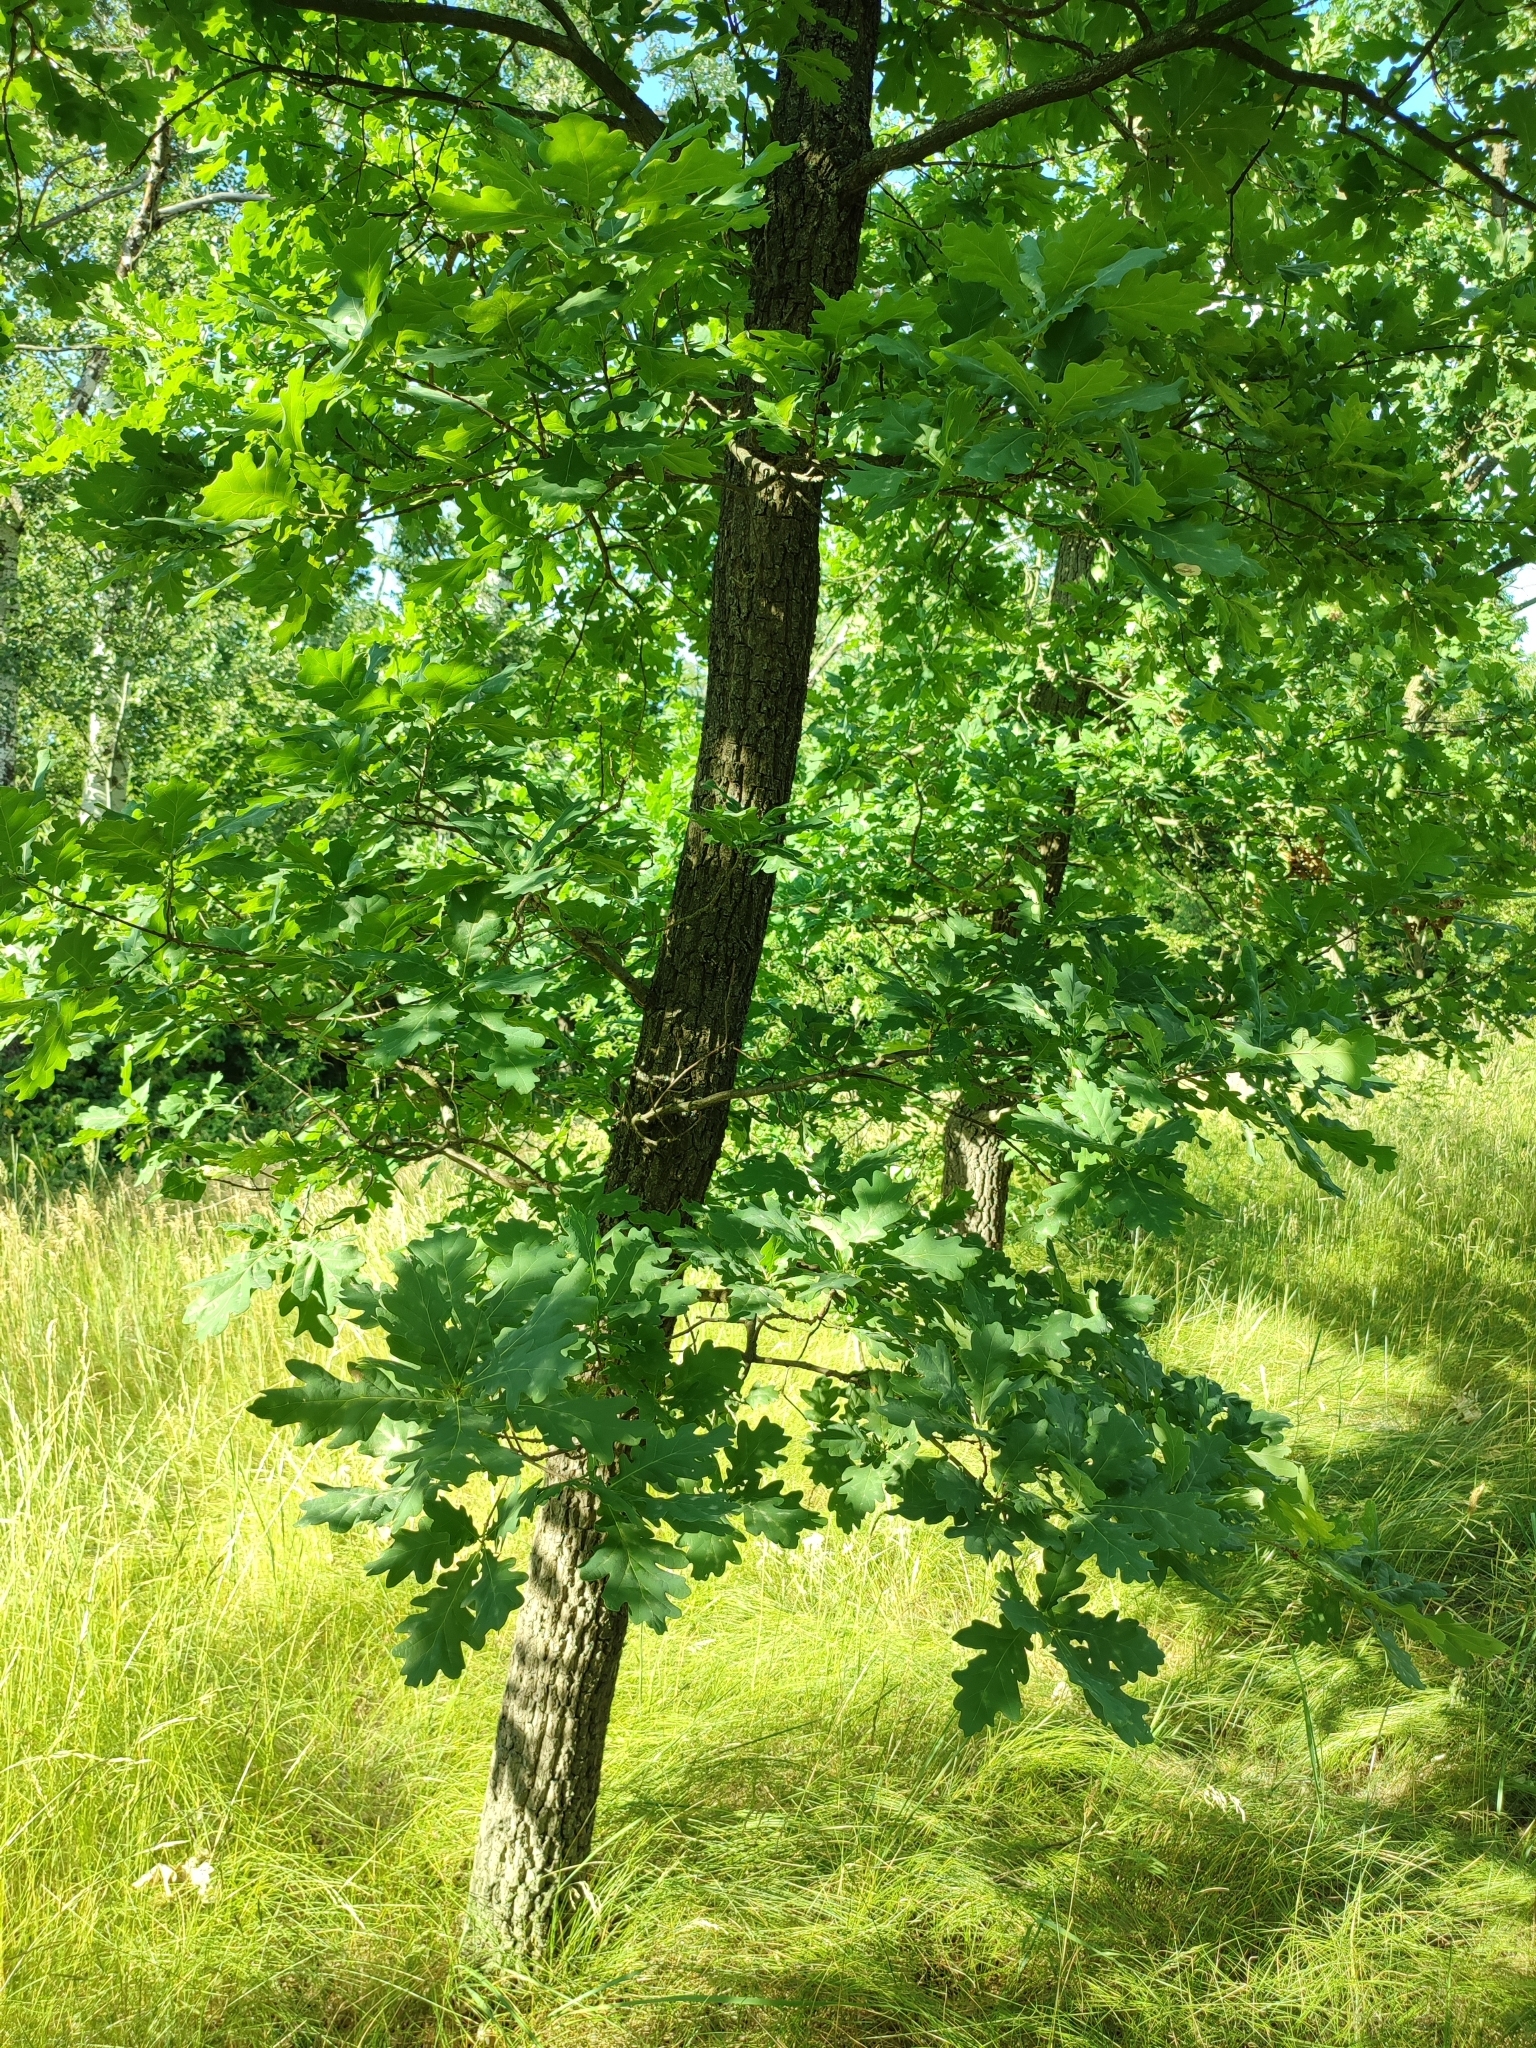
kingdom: Plantae
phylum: Tracheophyta
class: Magnoliopsida
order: Fagales
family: Fagaceae
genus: Quercus
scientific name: Quercus robur
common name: Pedunculate oak
